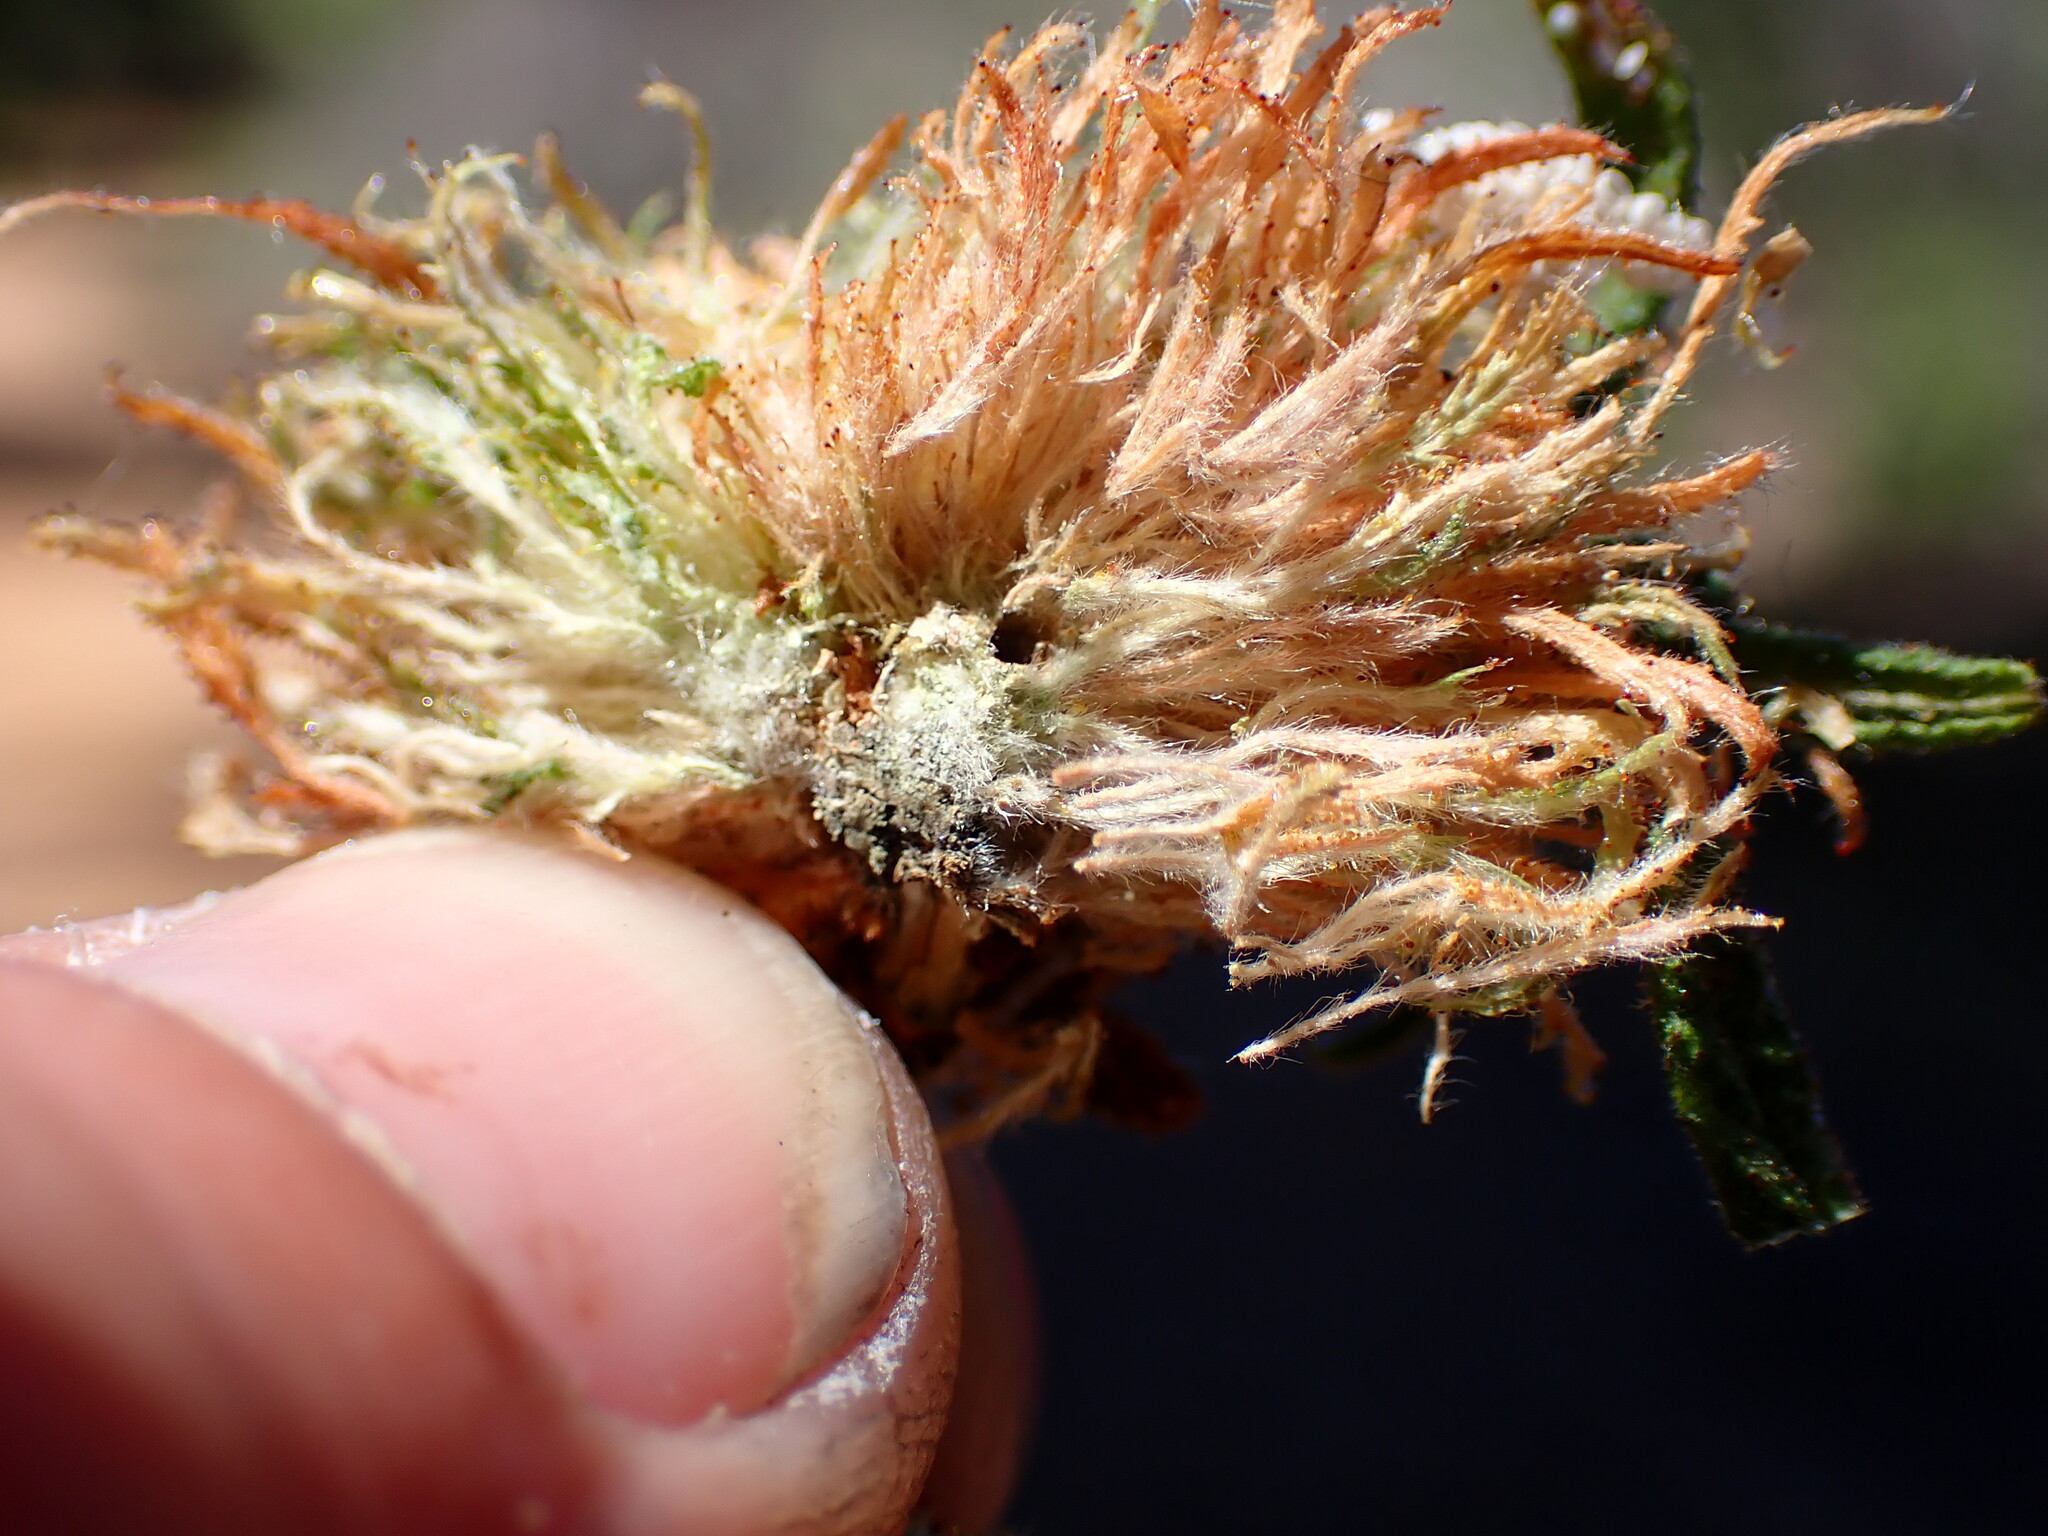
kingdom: Animalia
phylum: Arthropoda
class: Insecta
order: Diptera
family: Cecidomyiidae
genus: Asphondylia
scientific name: Asphondylia ceanothi
